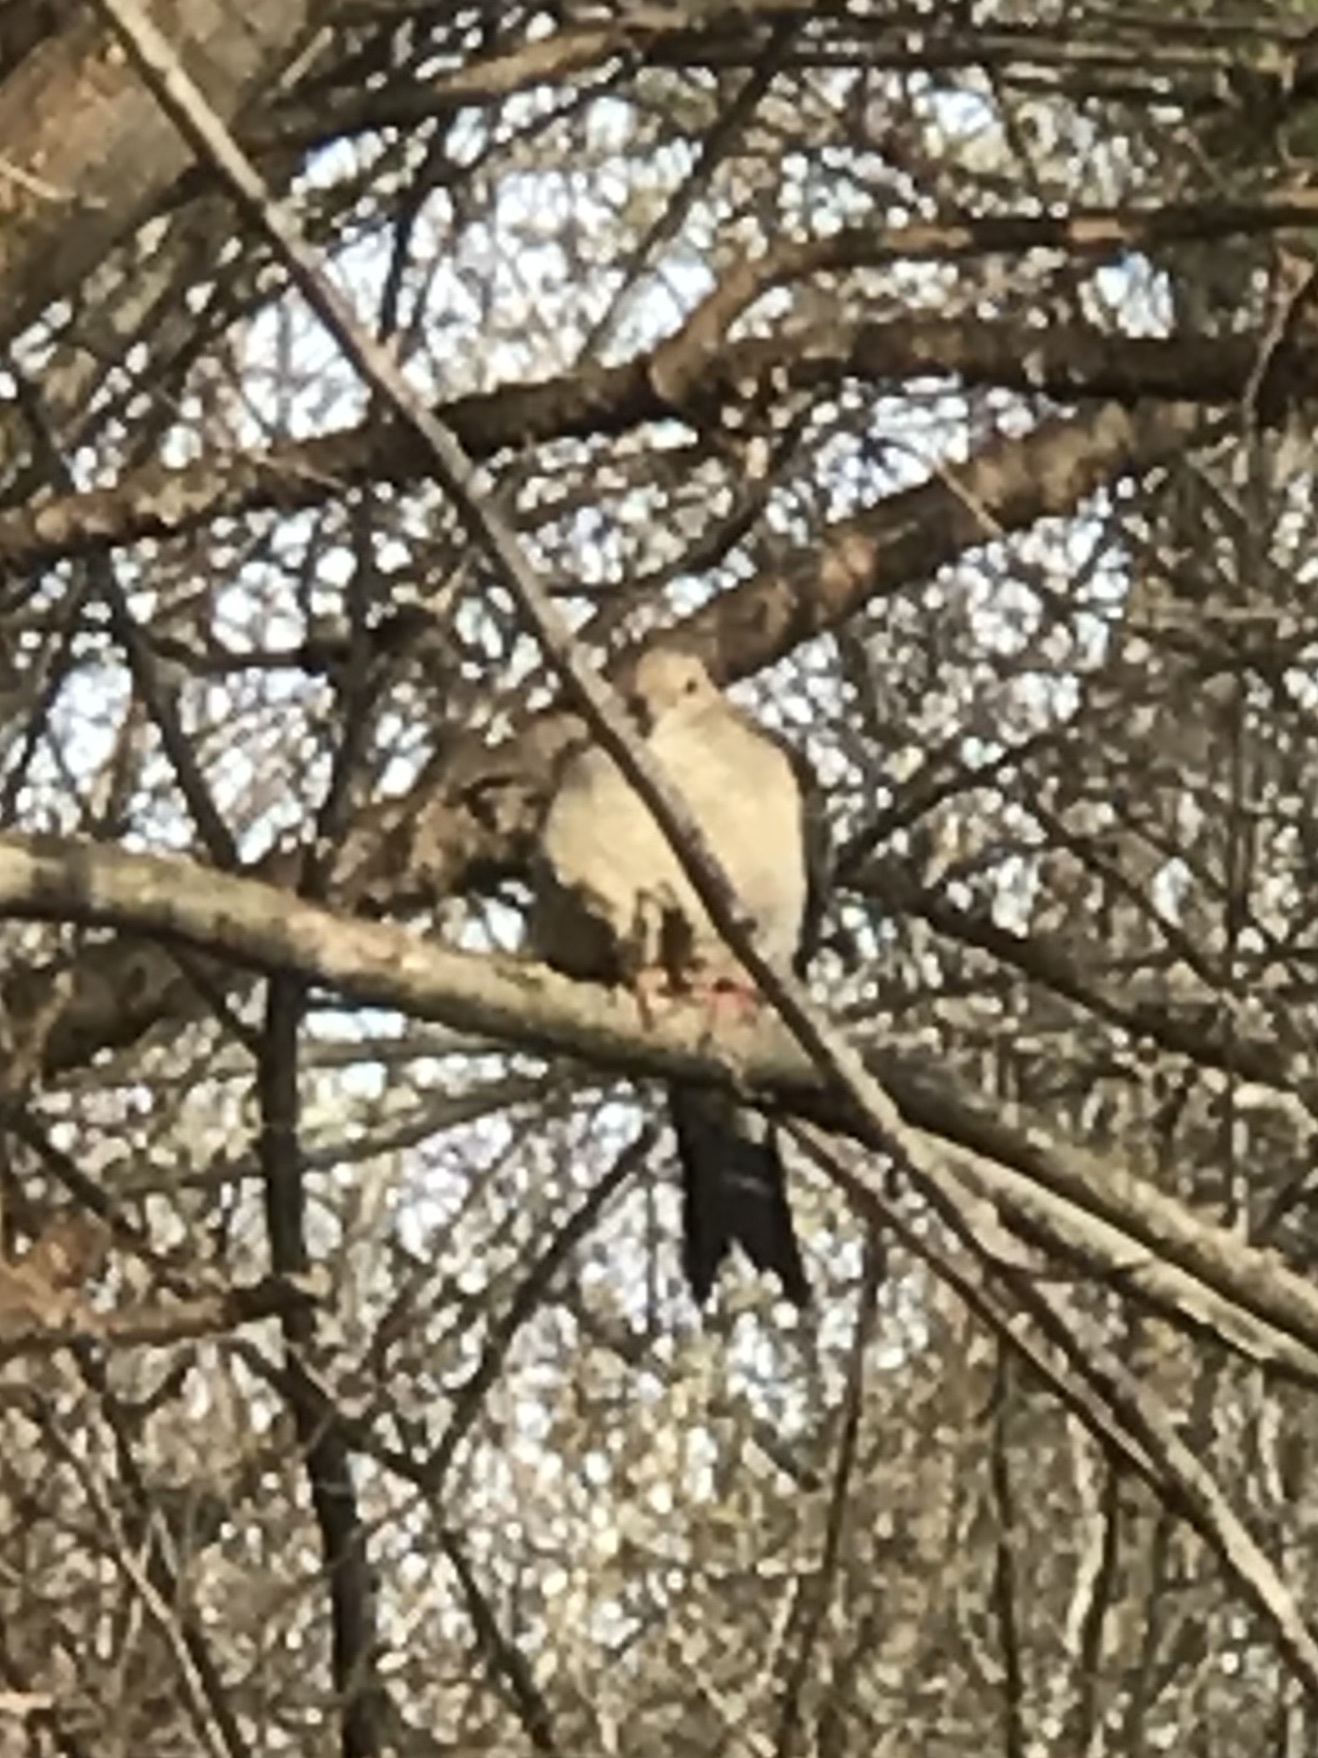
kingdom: Animalia
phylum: Chordata
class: Aves
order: Columbiformes
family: Columbidae
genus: Zenaida
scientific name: Zenaida macroura
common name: Mourning dove
